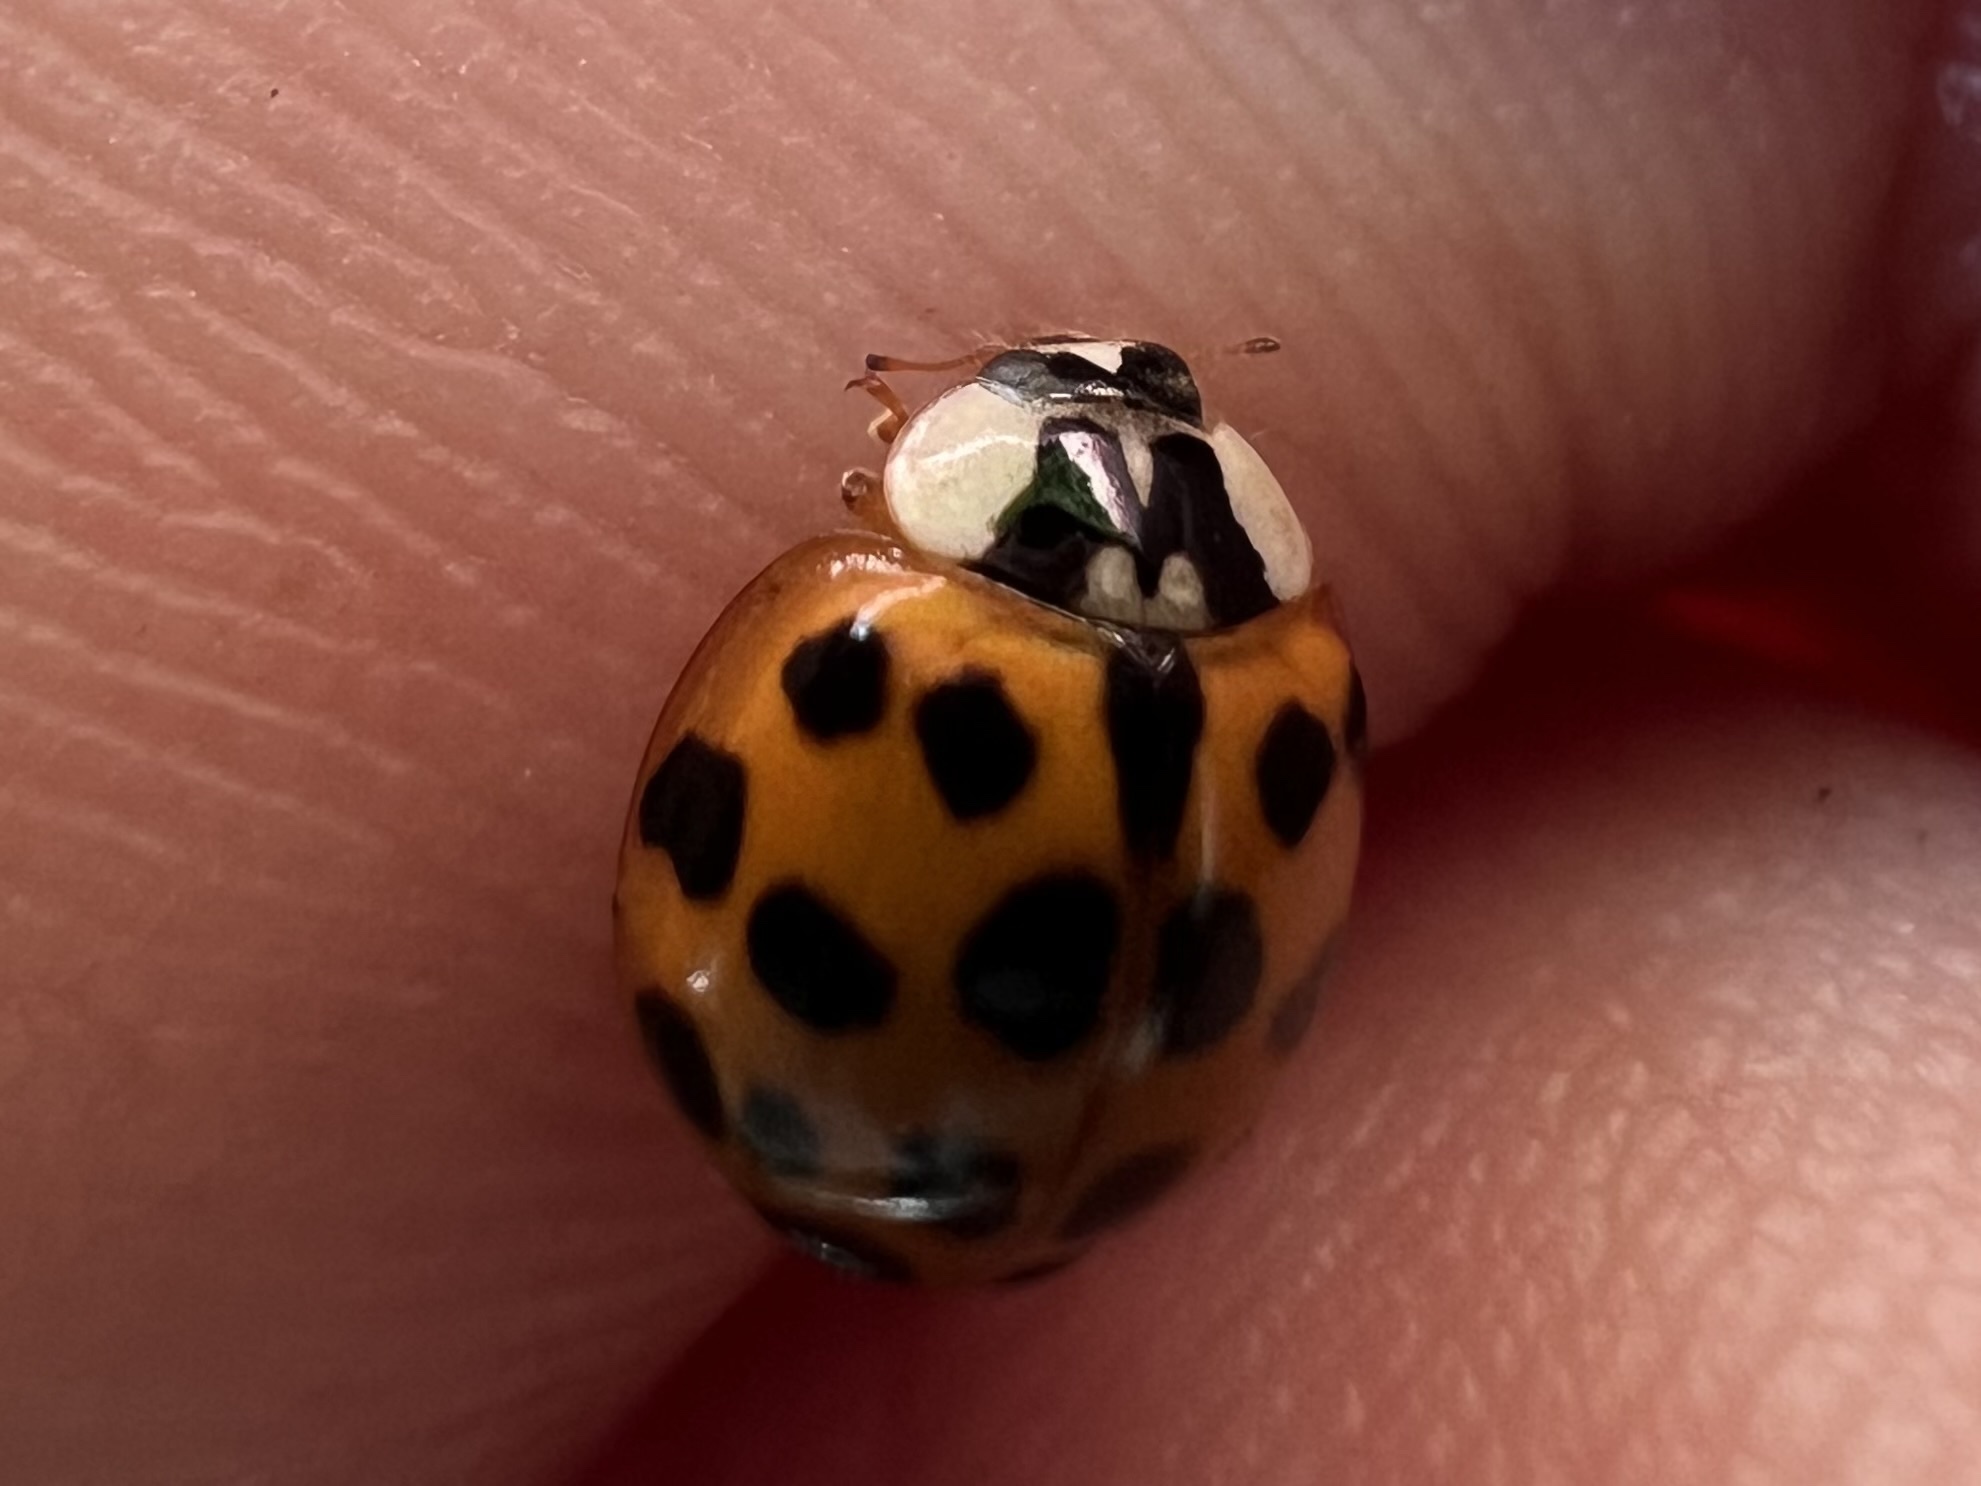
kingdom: Animalia
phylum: Arthropoda
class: Insecta
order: Coleoptera
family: Coccinellidae
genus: Harmonia
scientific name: Harmonia axyridis
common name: Harlequin ladybird
